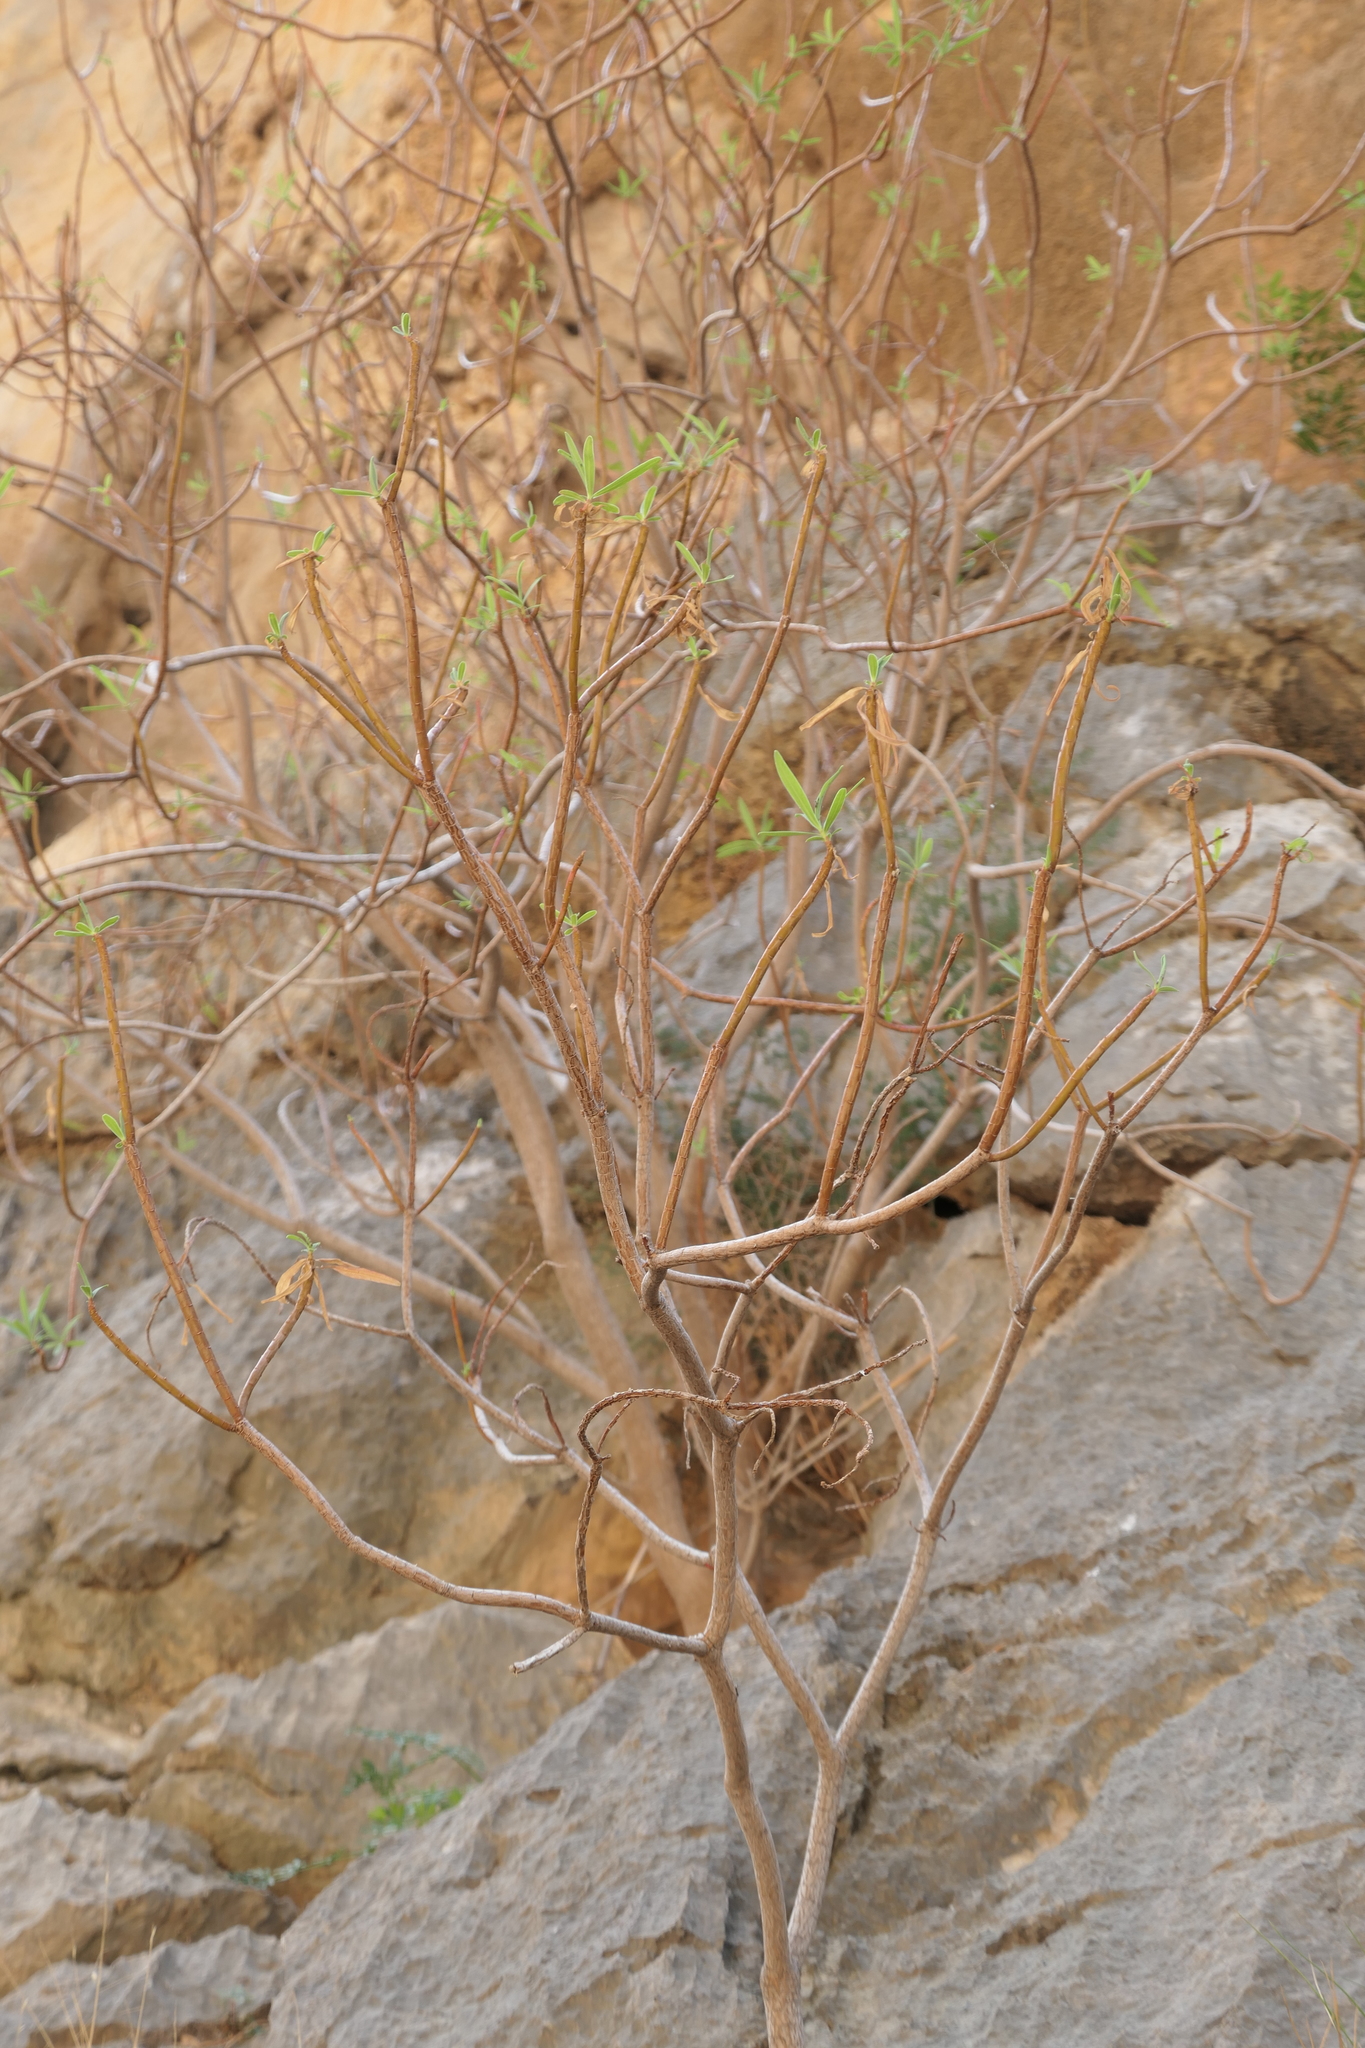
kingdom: Plantae
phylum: Tracheophyta
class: Magnoliopsida
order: Malpighiales
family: Euphorbiaceae
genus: Euphorbia
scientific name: Euphorbia dendroides
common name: Tree spurge
